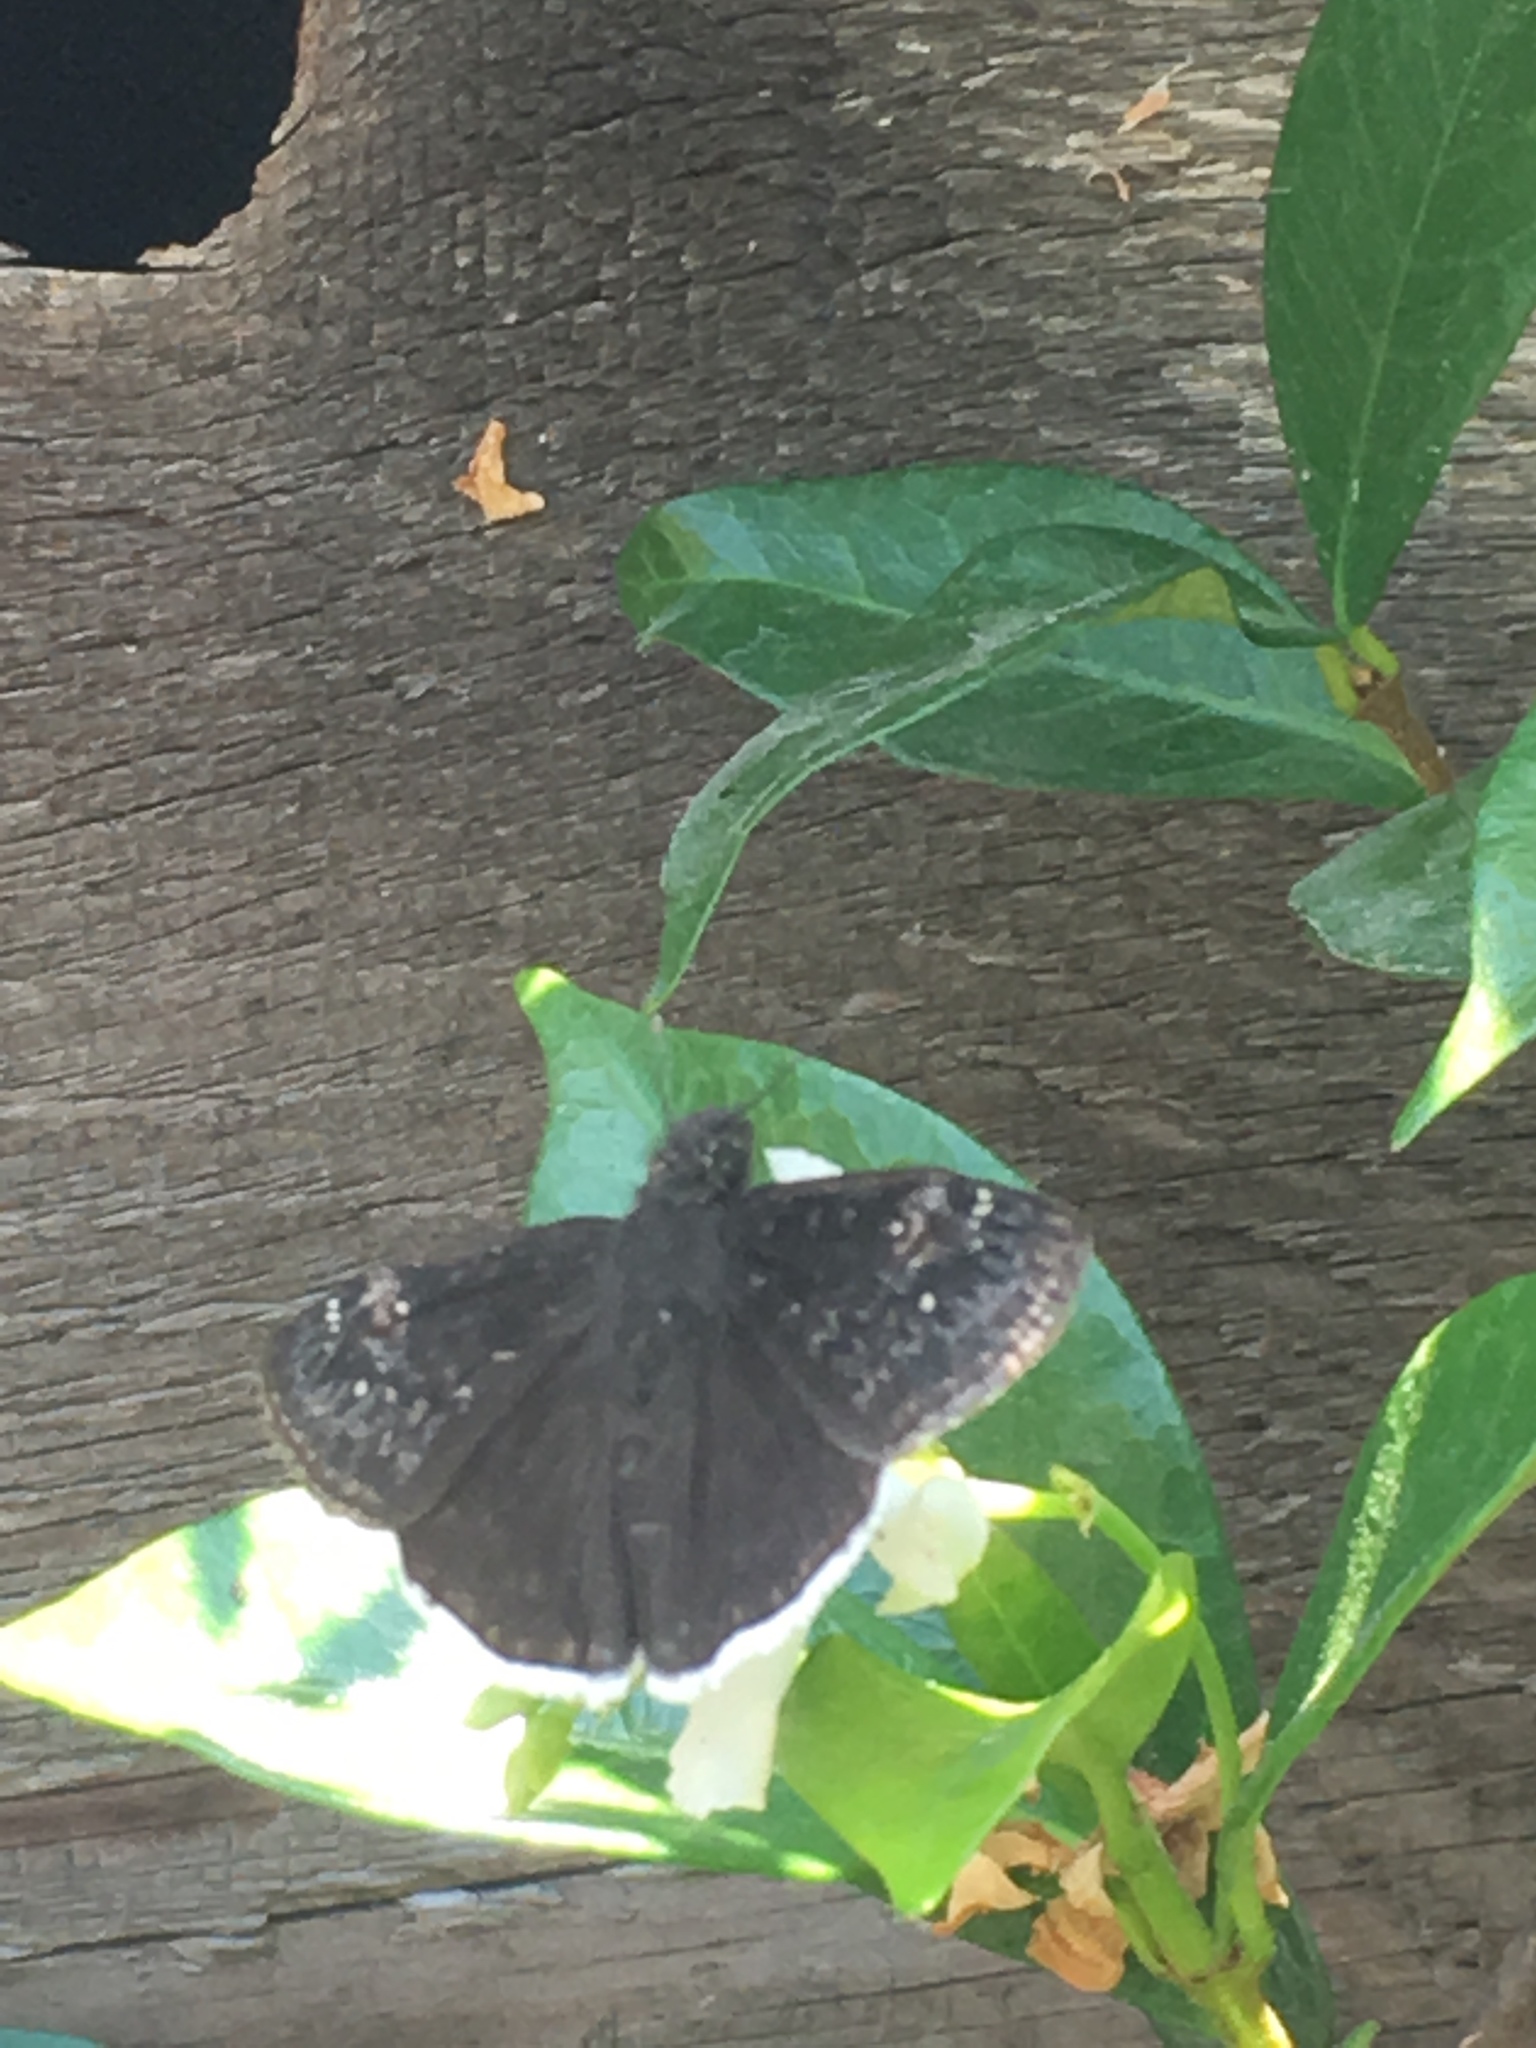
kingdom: Animalia
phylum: Arthropoda
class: Insecta
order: Lepidoptera
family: Hesperiidae
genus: Erynnis
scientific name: Erynnis funeralis
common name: Funereal duskywing
